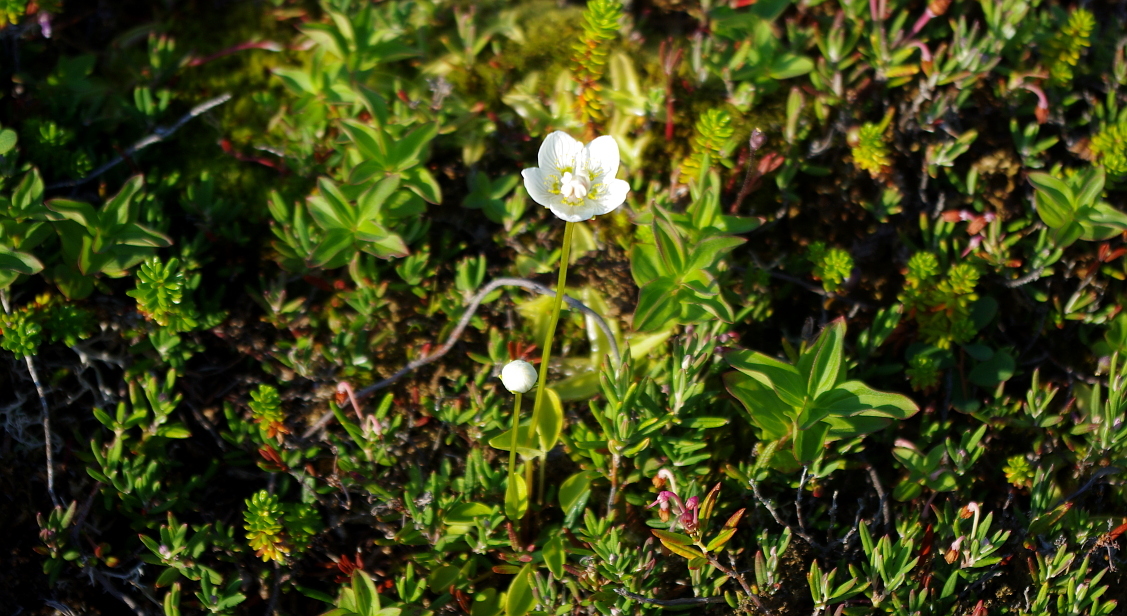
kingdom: Plantae
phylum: Tracheophyta
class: Magnoliopsida
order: Celastrales
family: Parnassiaceae
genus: Parnassia
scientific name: Parnassia palustris
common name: Grass-of-parnassus
